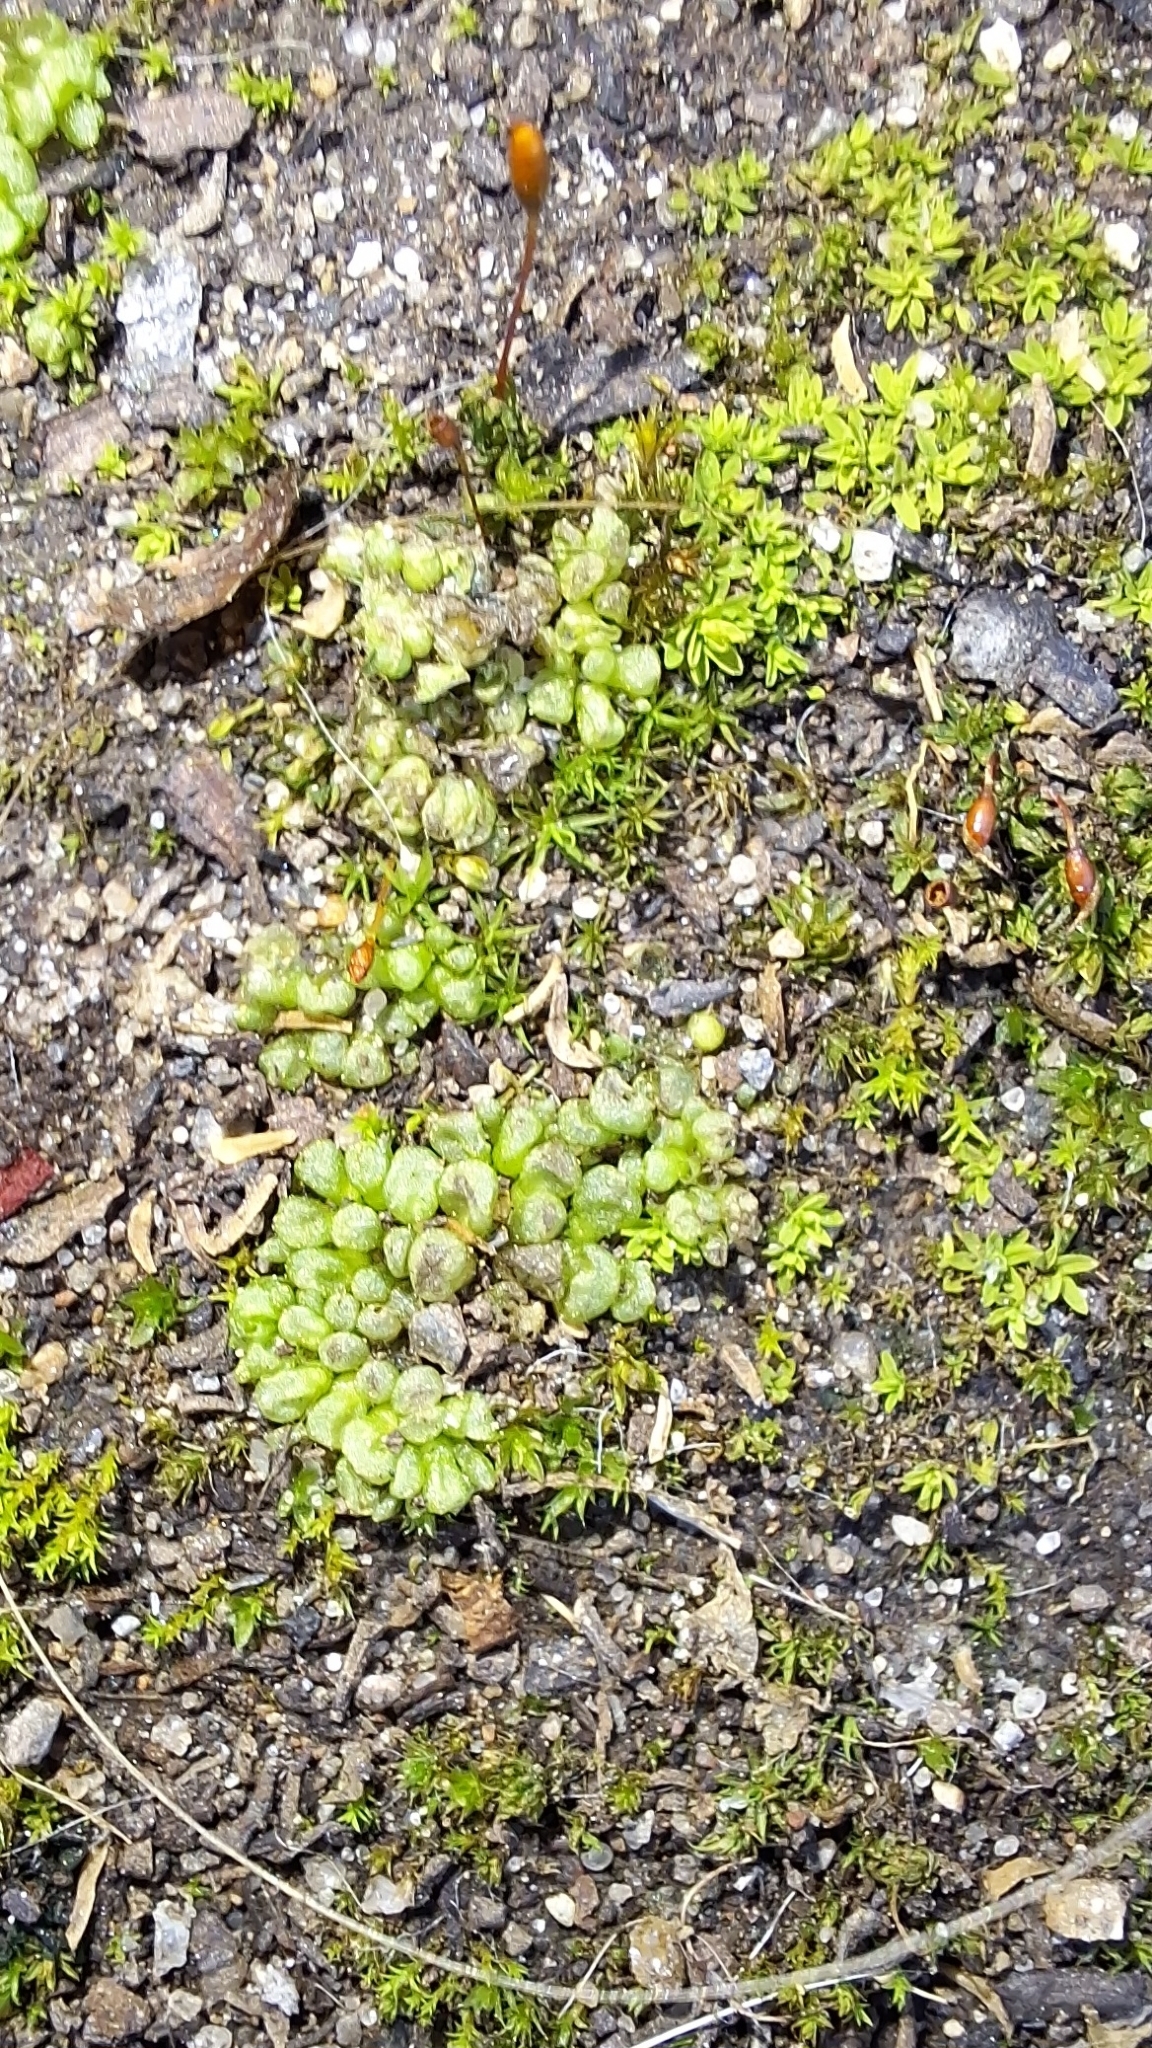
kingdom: Plantae
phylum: Marchantiophyta
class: Marchantiopsida
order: Sphaerocarpales
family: Sphaerocarpaceae
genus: Sphaerocarpos
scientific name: Sphaerocarpos texanus
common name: Texas balloonwort
